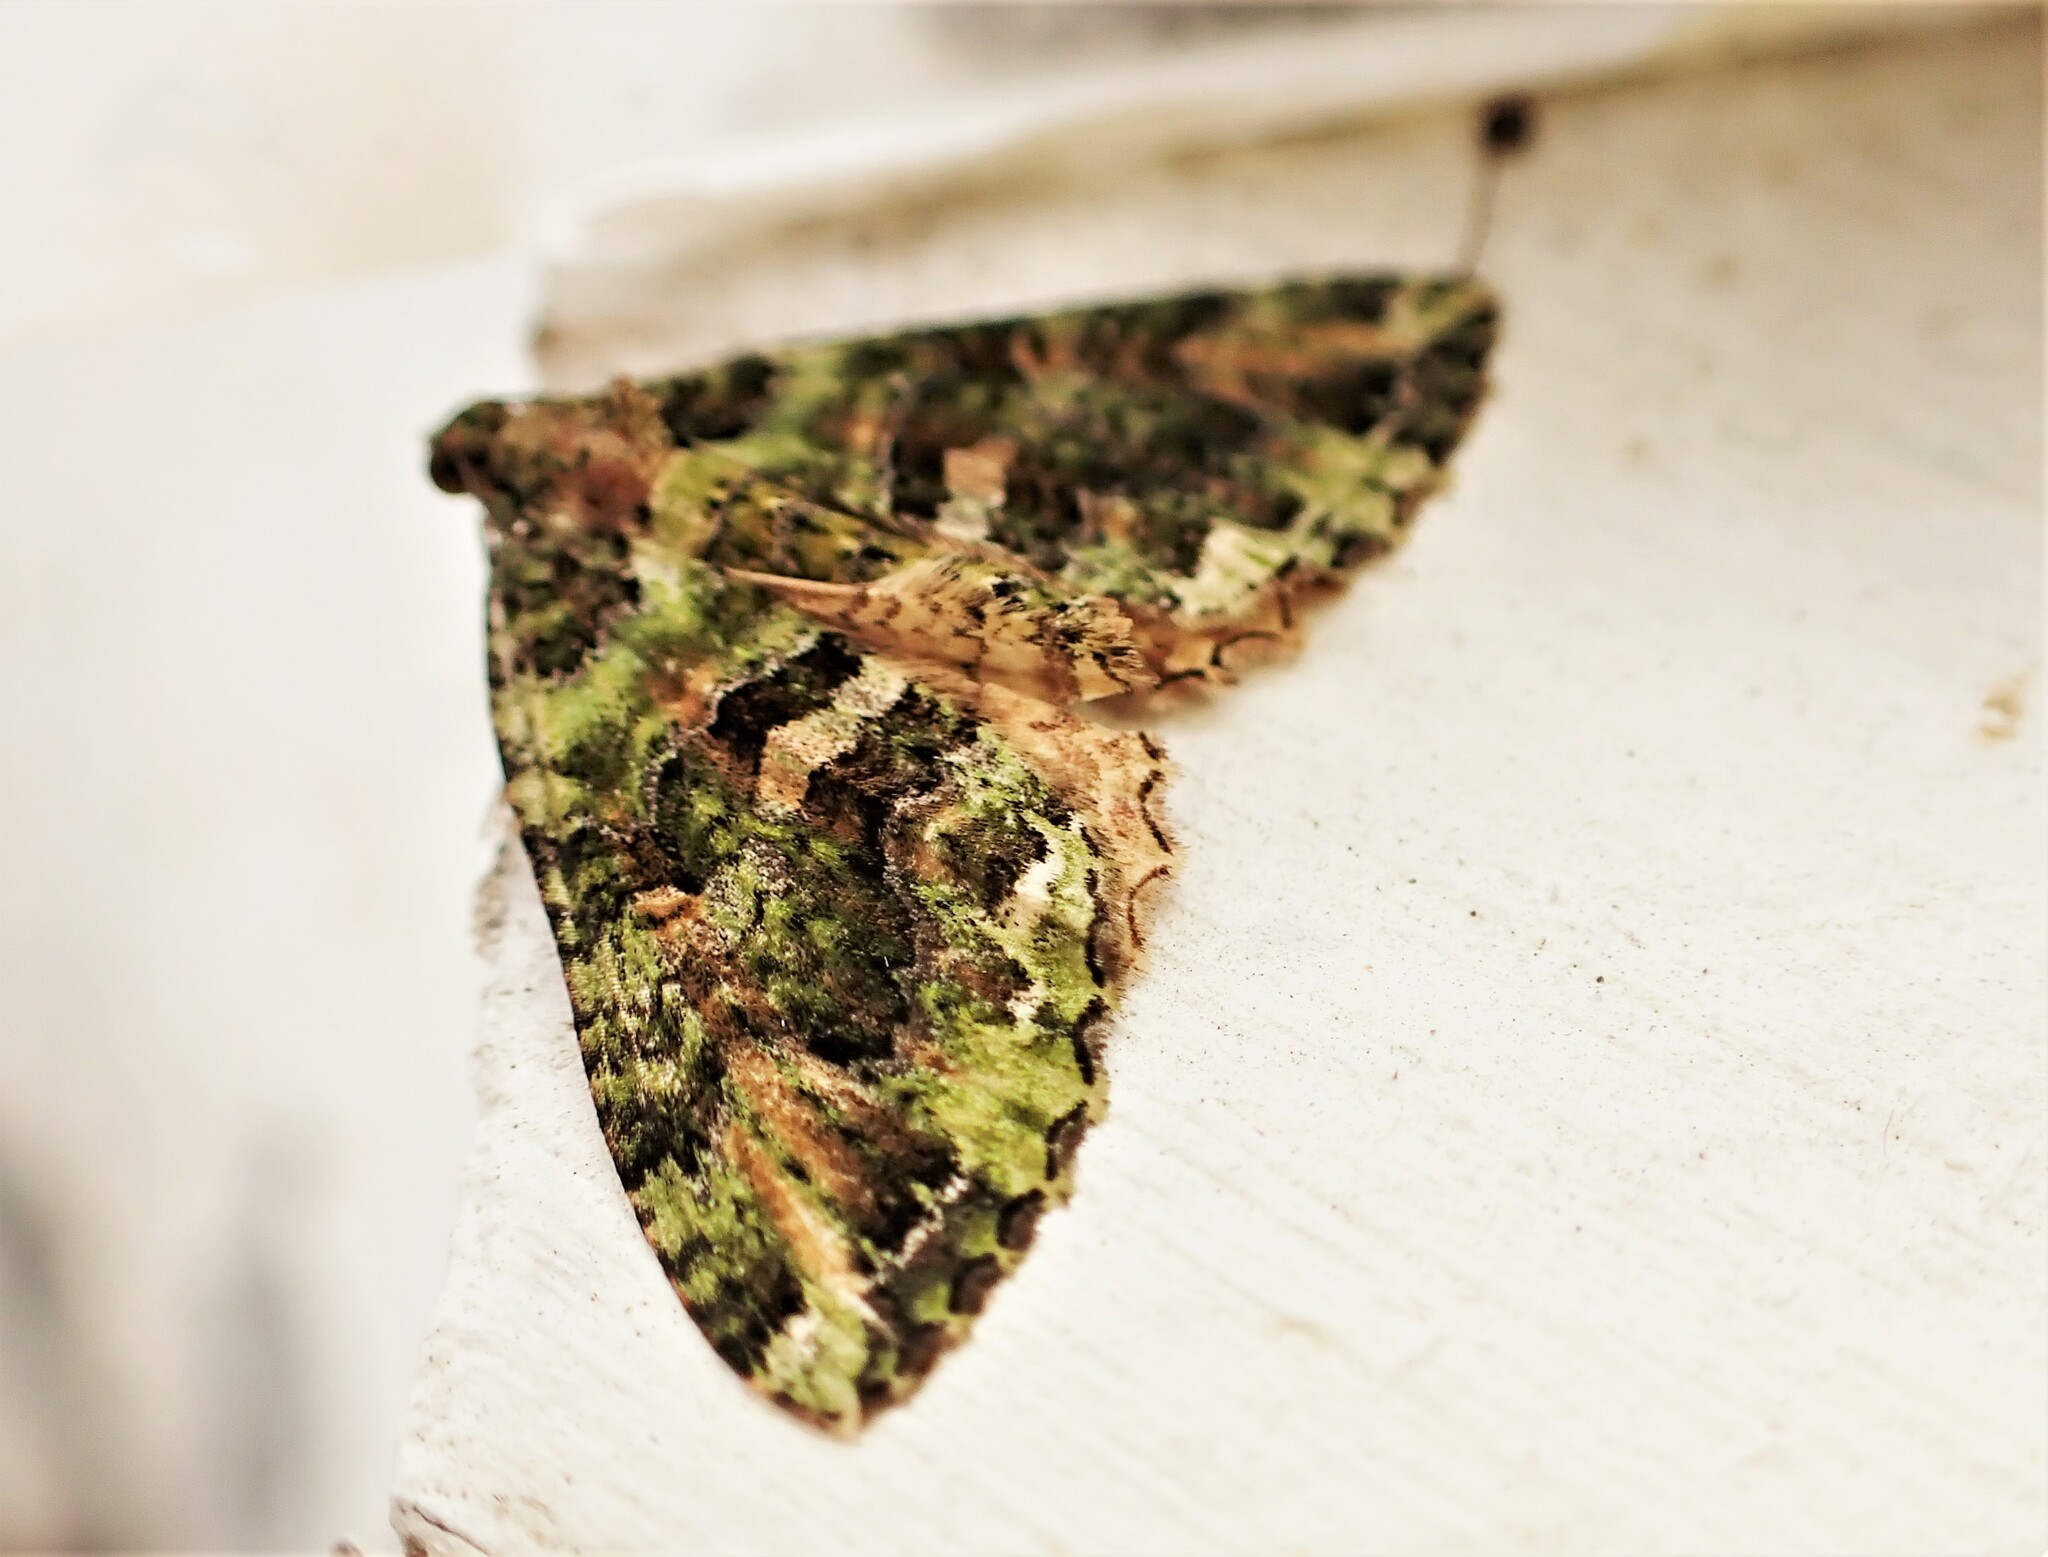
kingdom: Animalia
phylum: Arthropoda
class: Insecta
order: Lepidoptera
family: Geometridae
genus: Austrocidaria
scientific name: Austrocidaria similata
